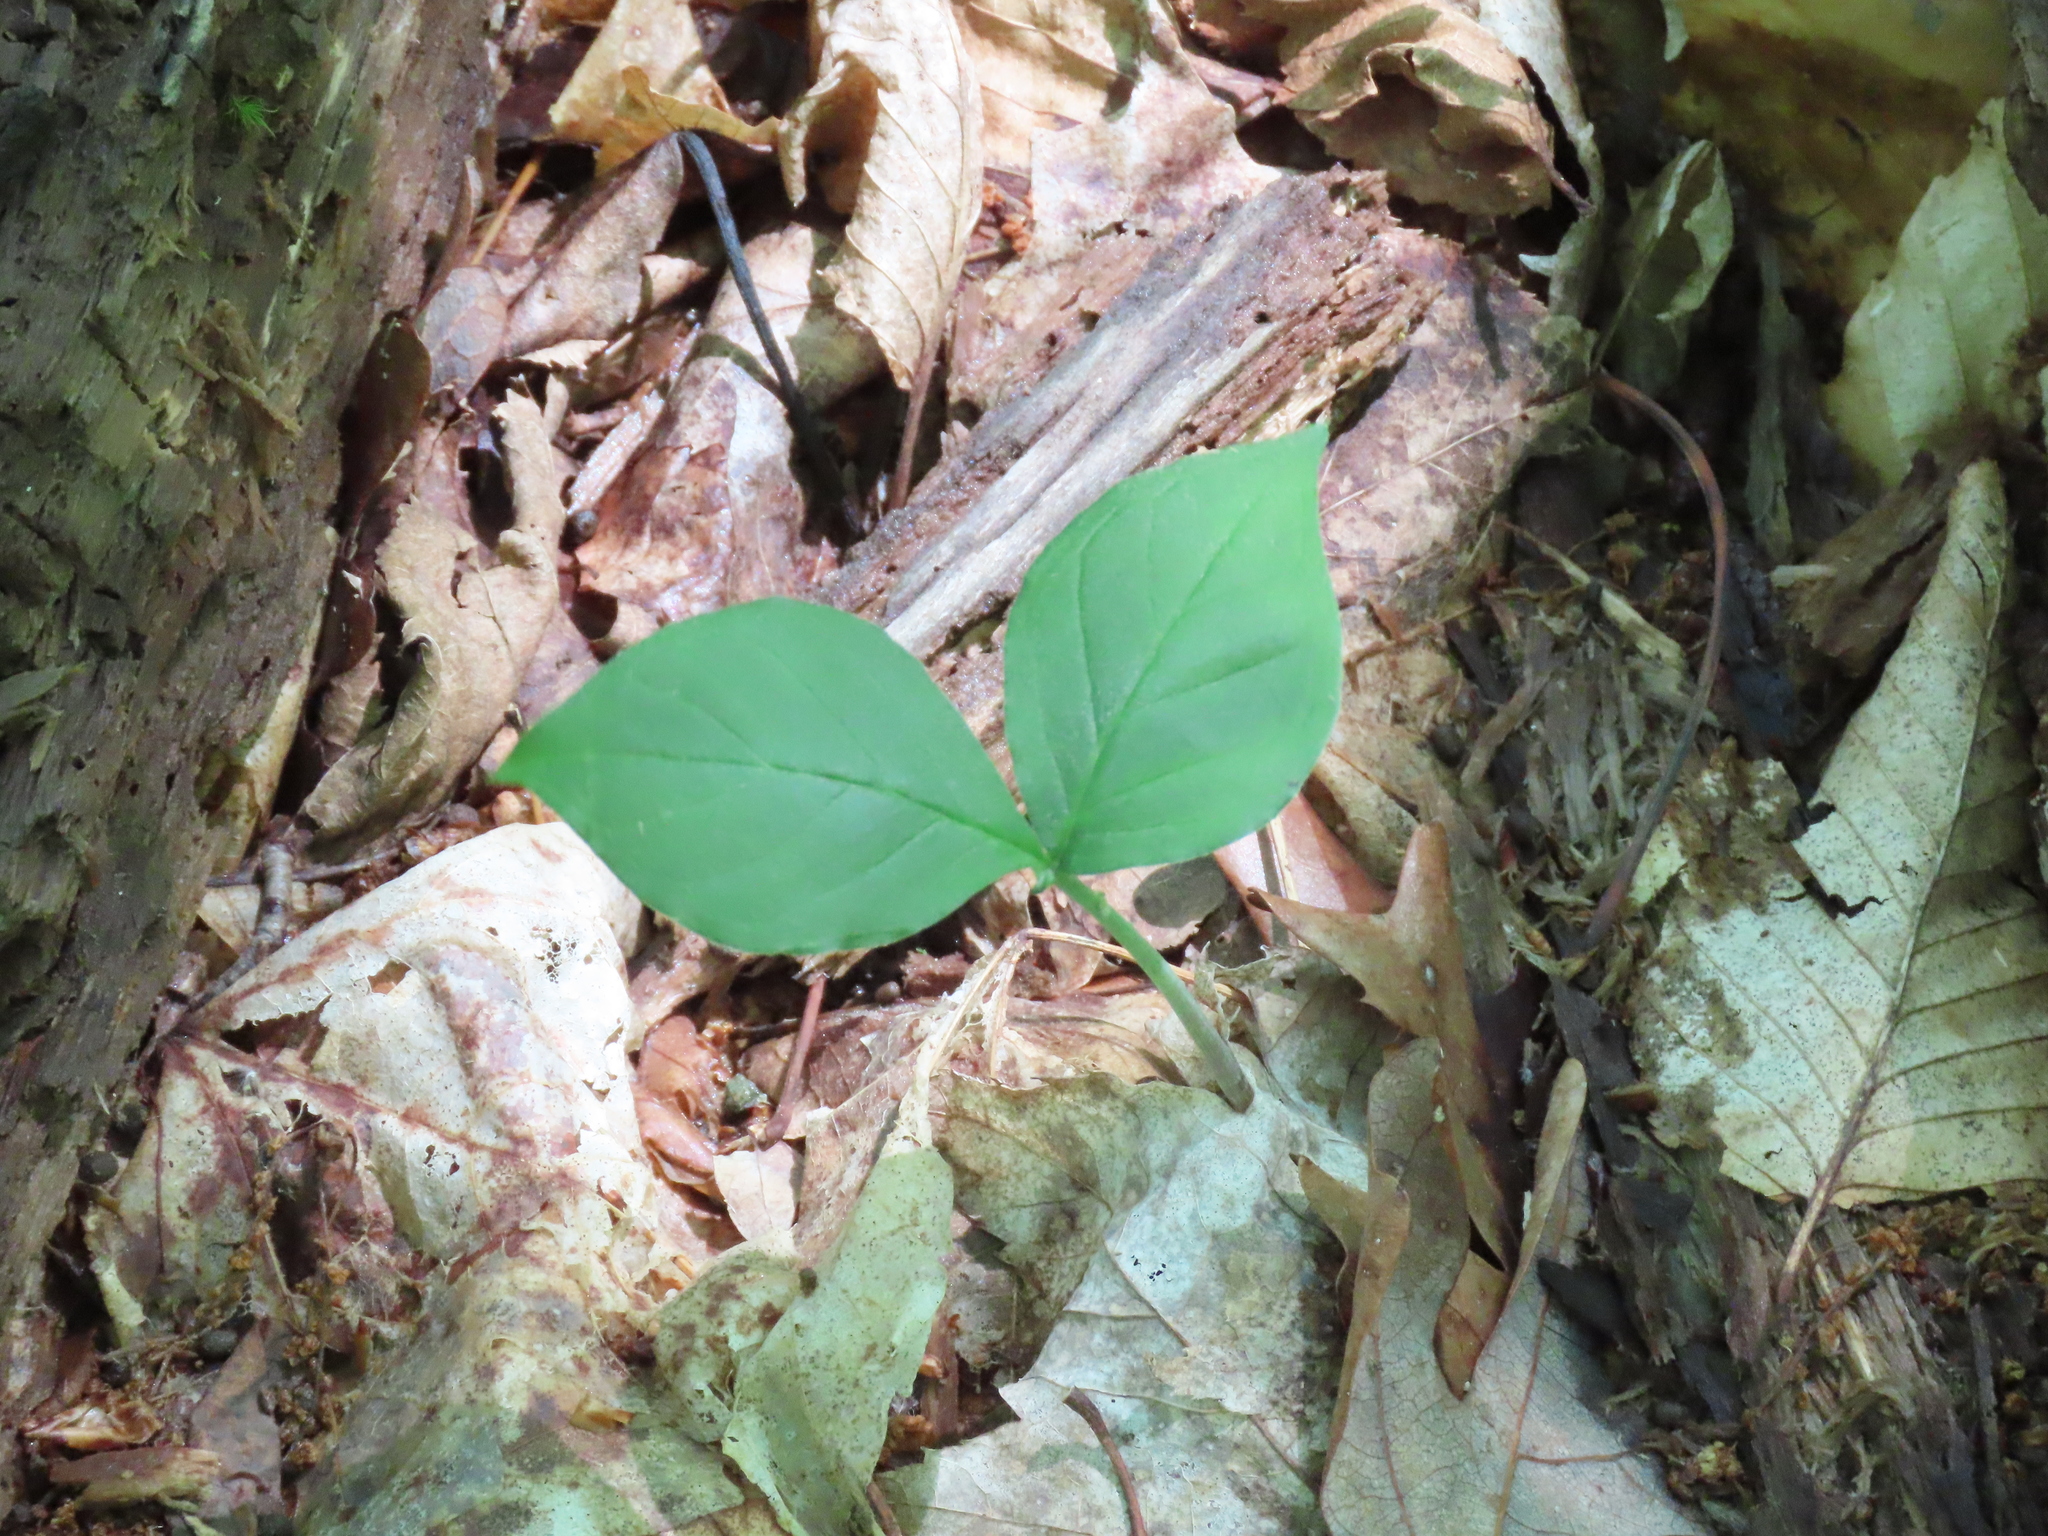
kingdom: Plantae
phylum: Tracheophyta
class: Liliopsida
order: Alismatales
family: Araceae
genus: Arisaema
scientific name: Arisaema triphyllum
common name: Jack-in-the-pulpit
